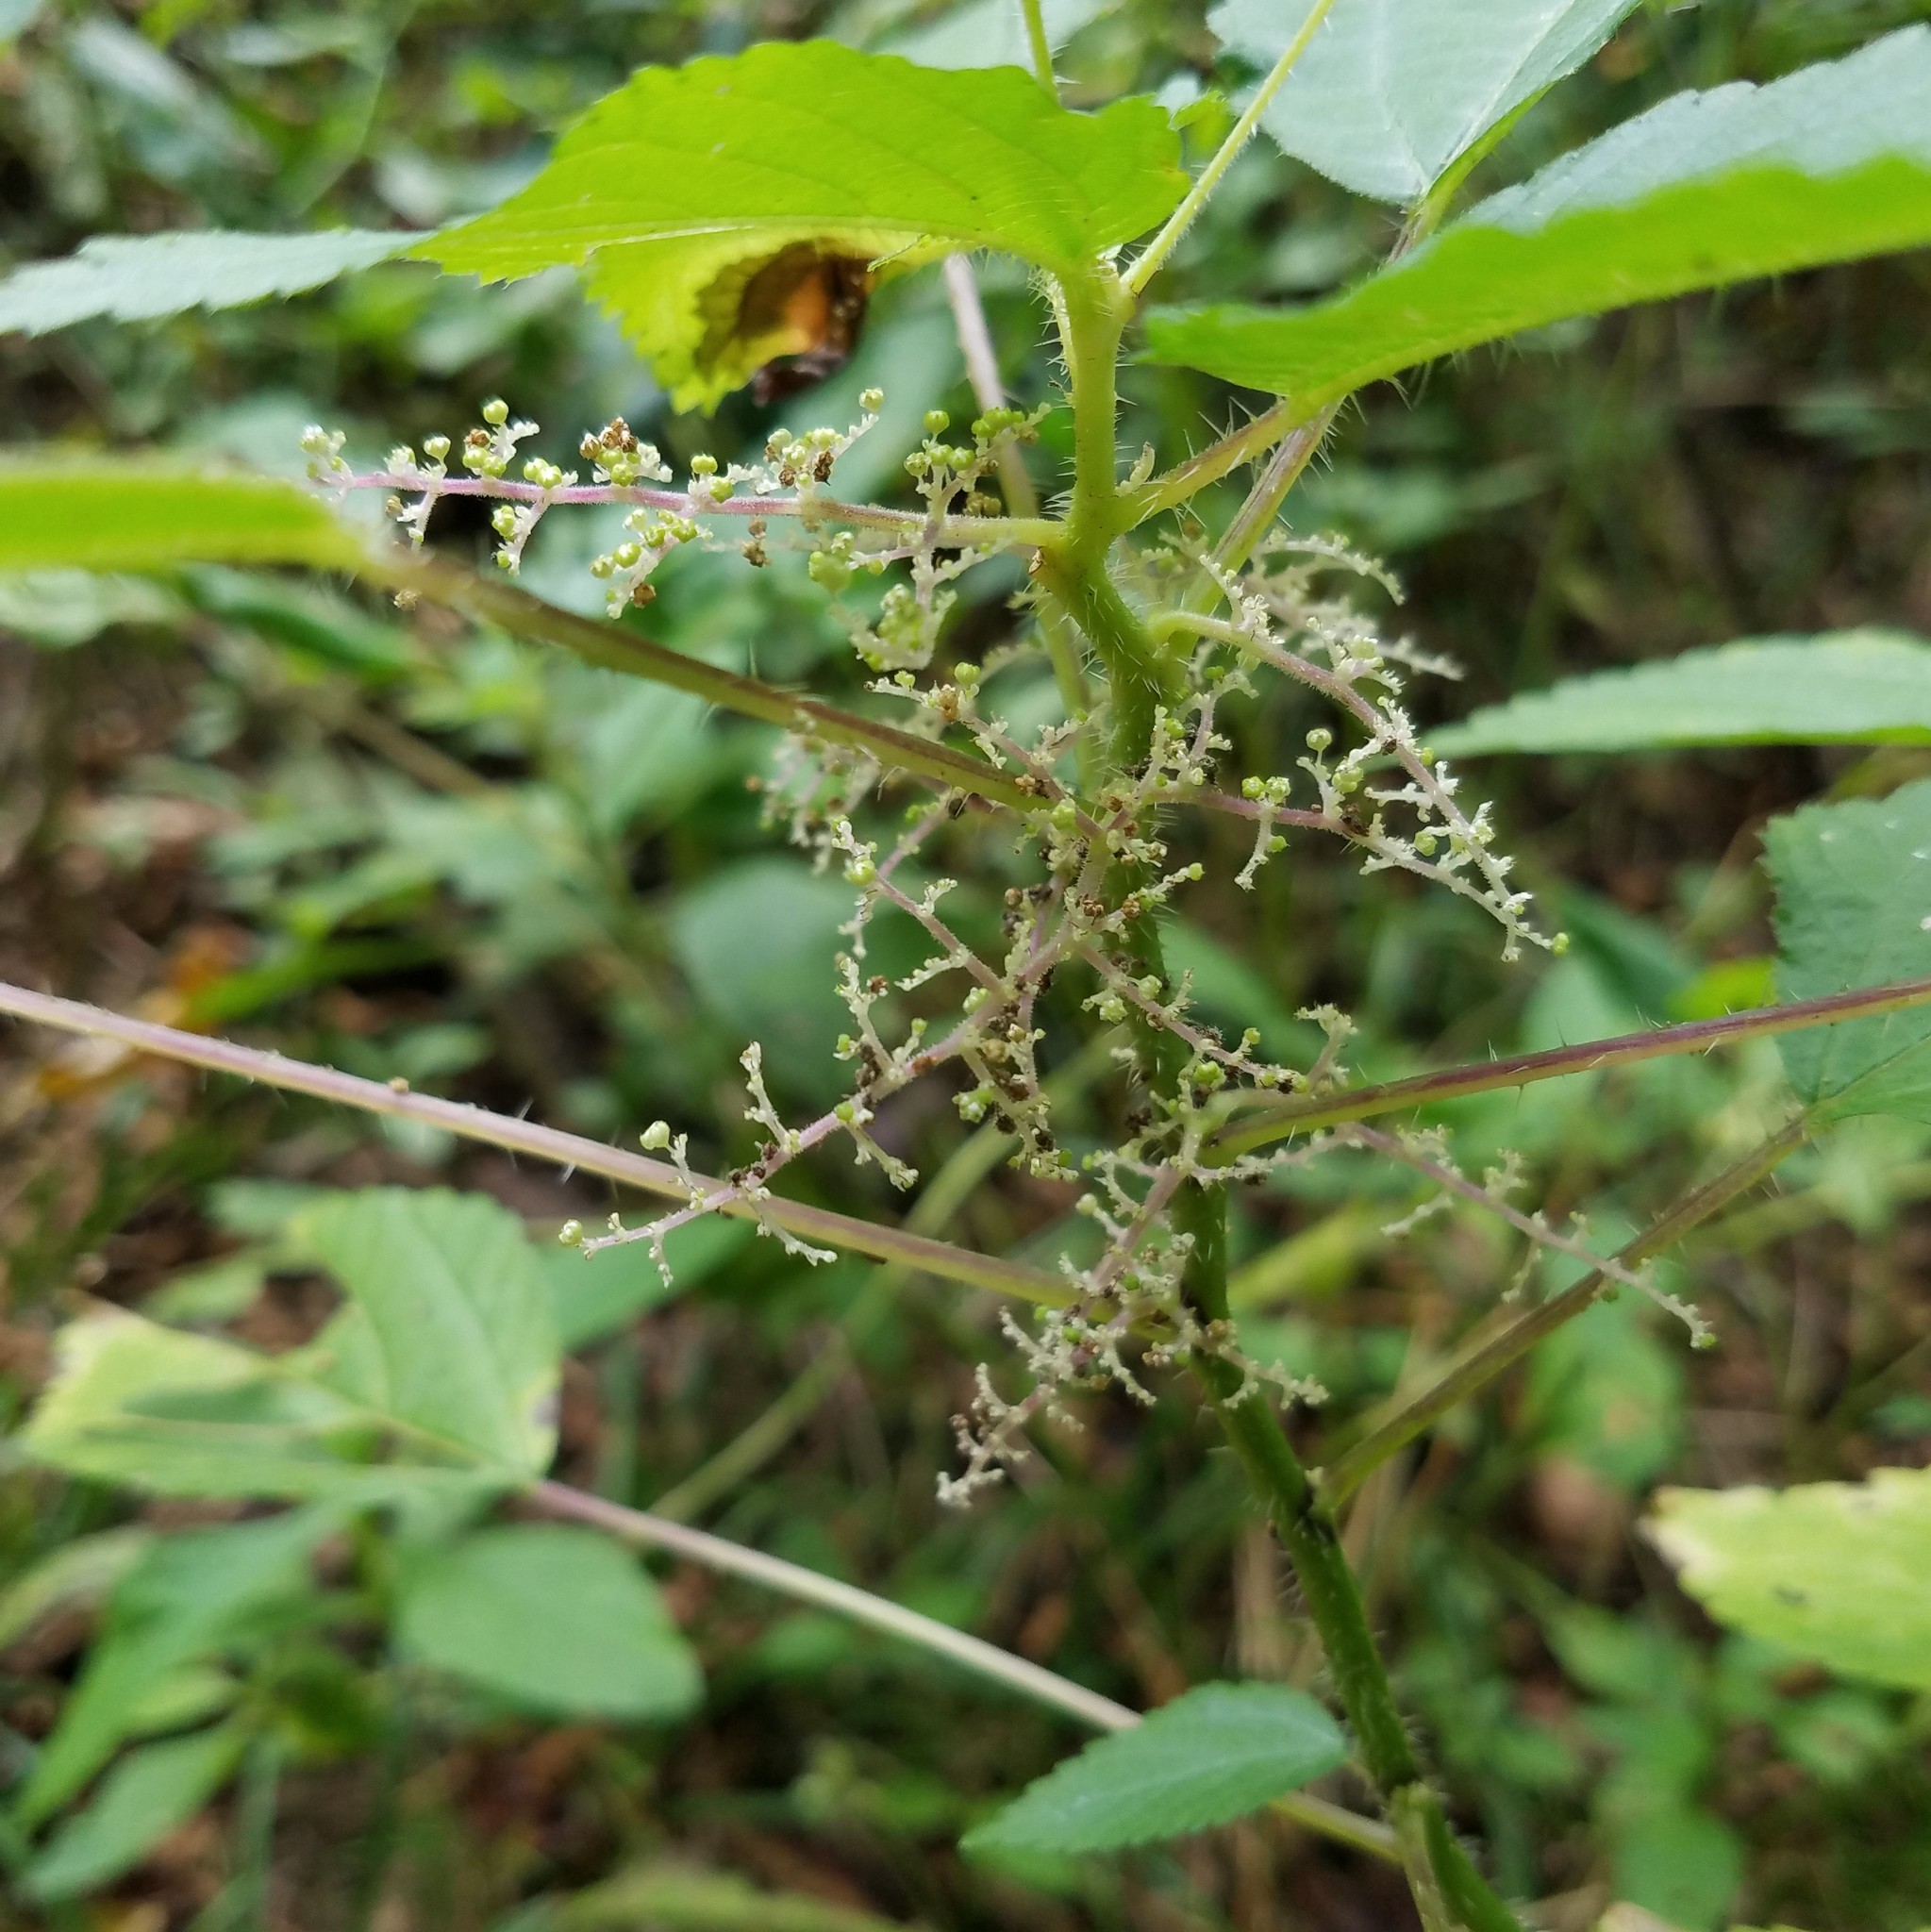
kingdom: Plantae
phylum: Tracheophyta
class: Magnoliopsida
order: Rosales
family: Urticaceae
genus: Laportea
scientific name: Laportea canadensis
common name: Canada nettle
